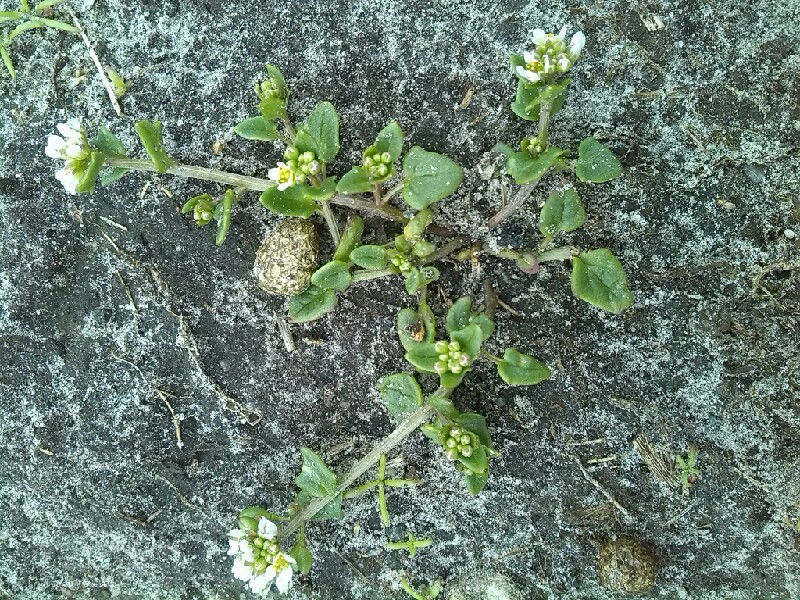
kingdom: Plantae
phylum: Tracheophyta
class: Magnoliopsida
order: Brassicales
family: Brassicaceae
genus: Cochlearia
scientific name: Cochlearia danica
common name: Early scurvygrass
